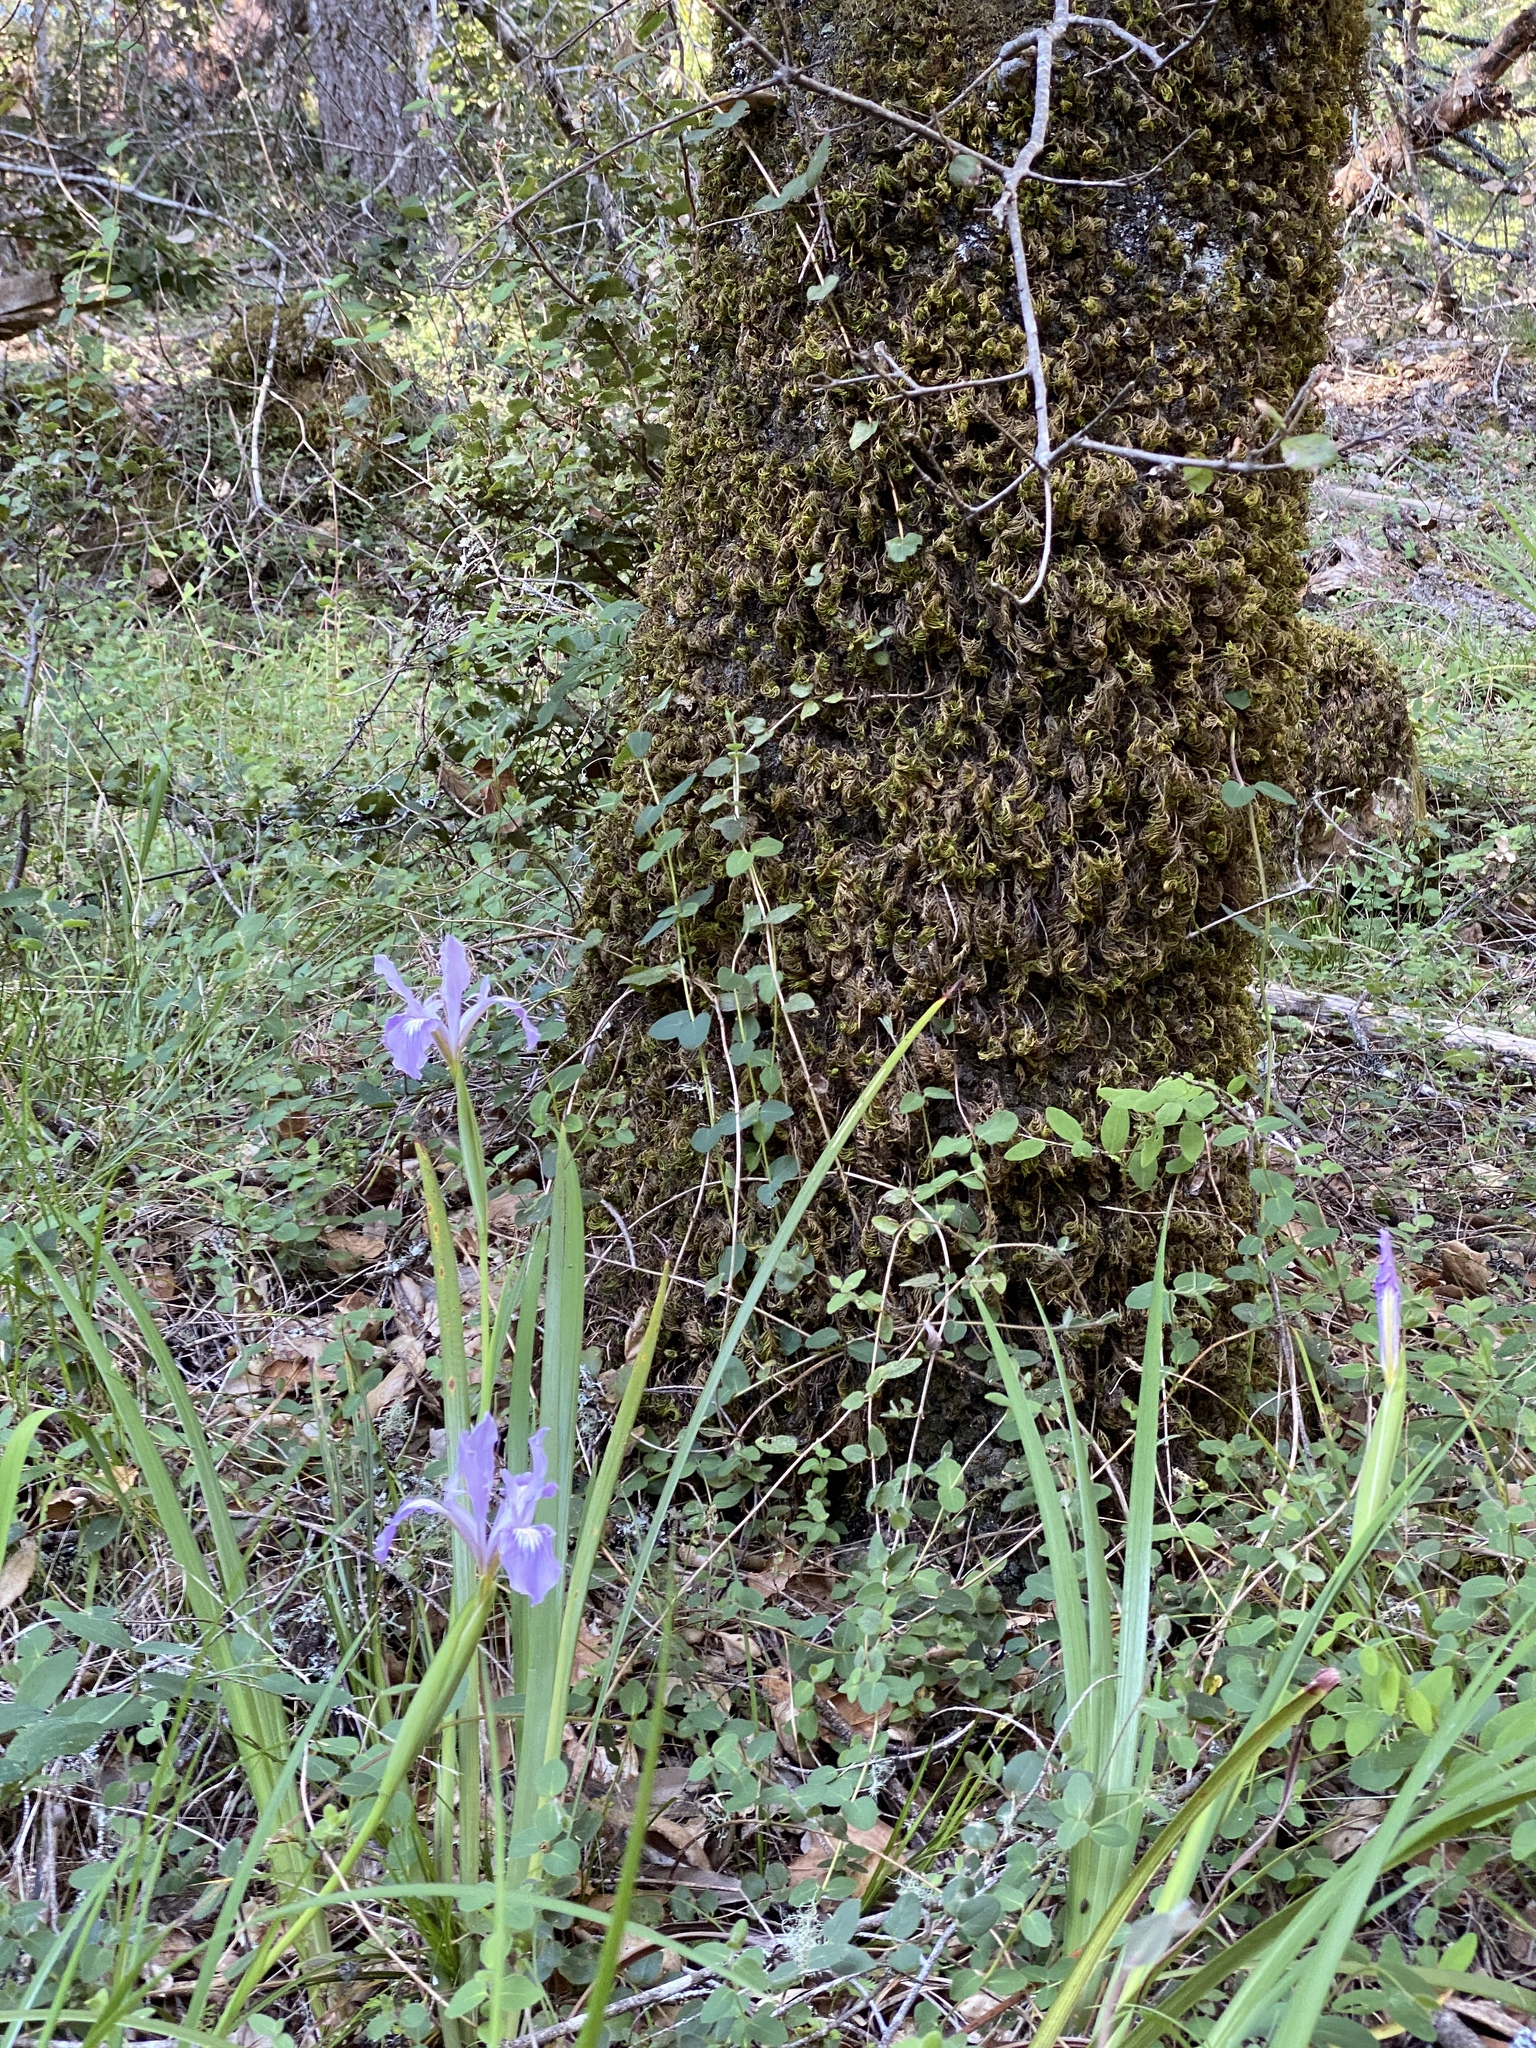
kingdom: Plantae
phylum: Tracheophyta
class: Liliopsida
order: Asparagales
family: Iridaceae
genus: Iris
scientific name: Iris douglasiana
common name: Marin iris
